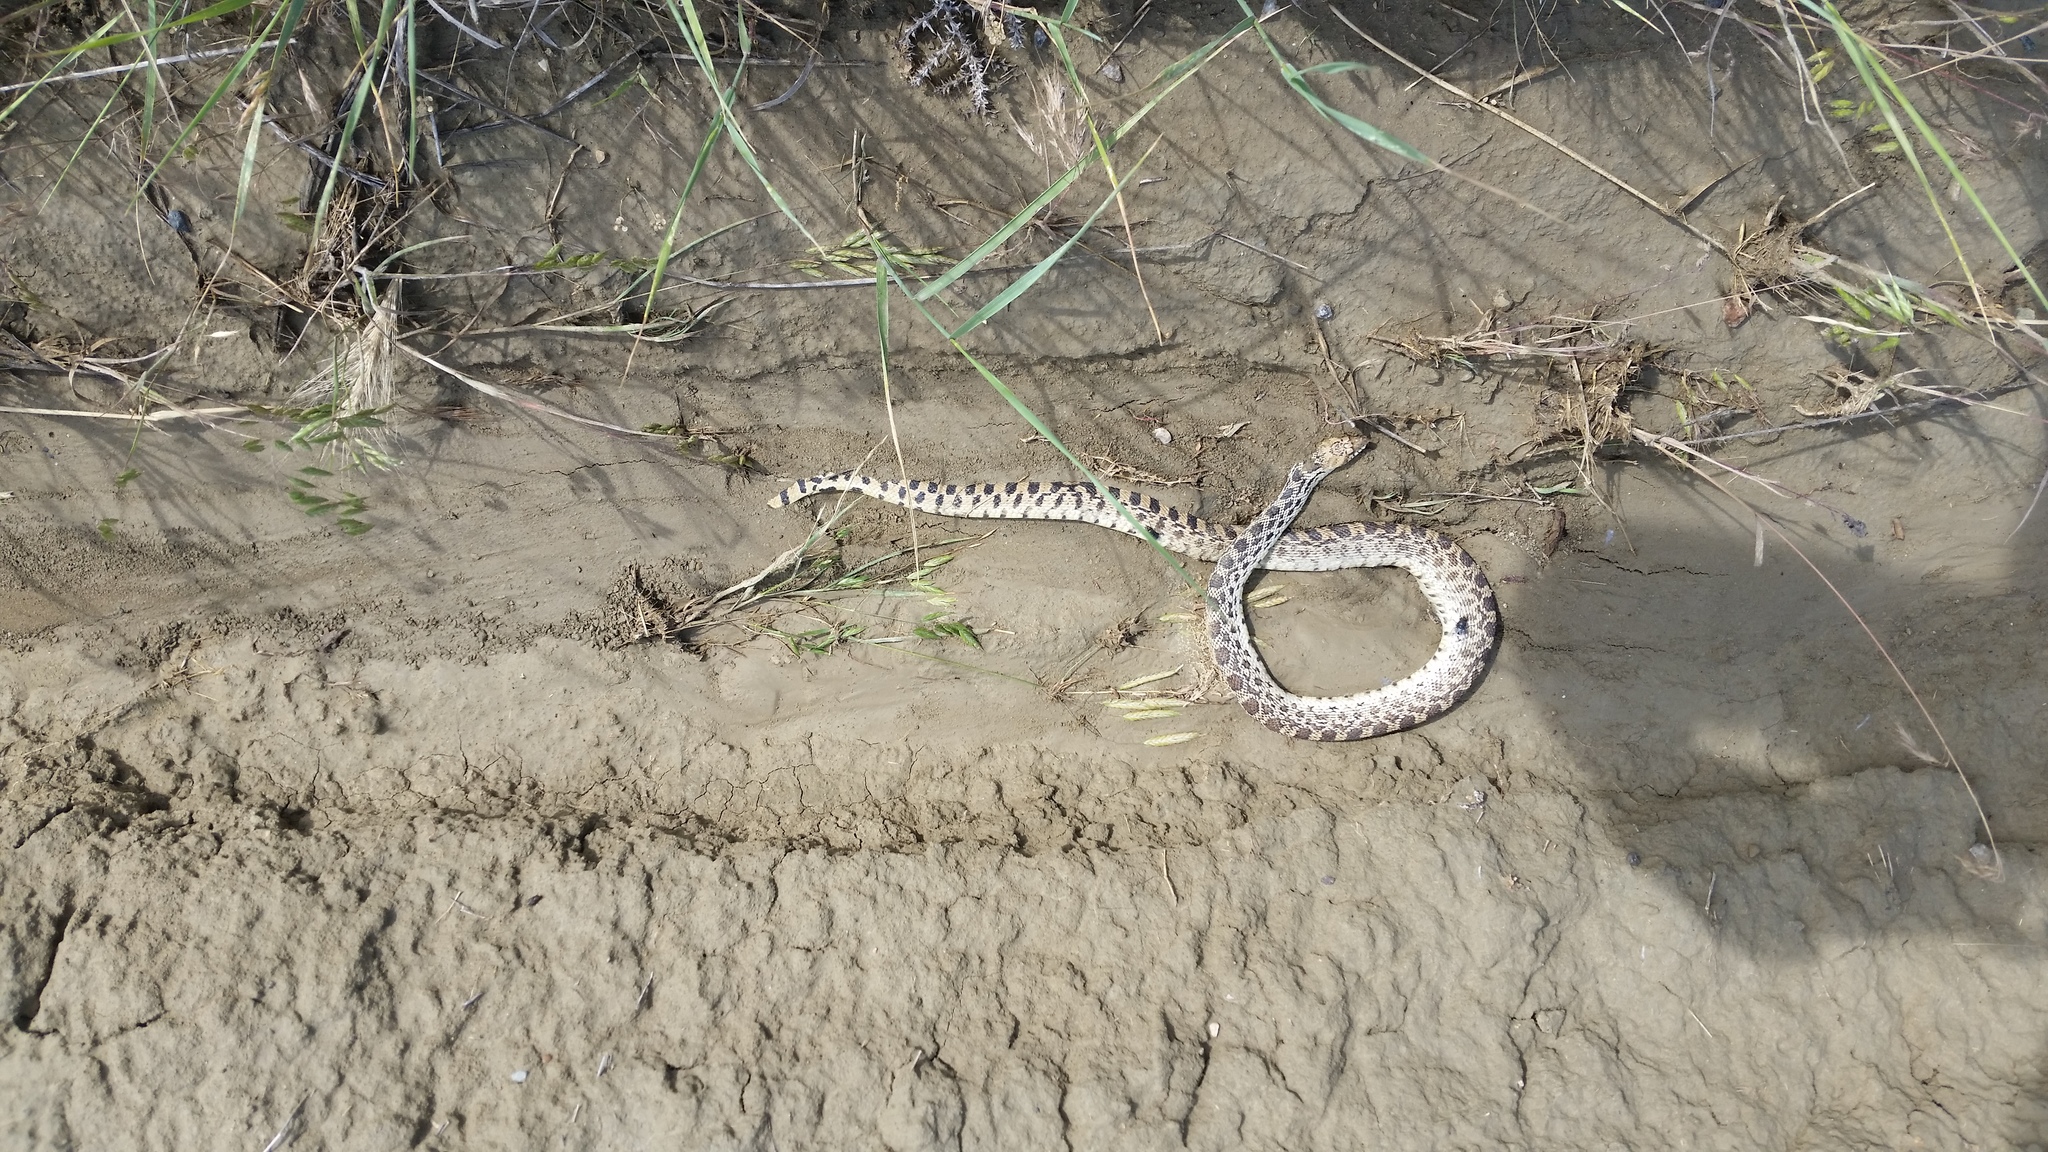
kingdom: Animalia
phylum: Chordata
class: Squamata
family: Colubridae
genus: Pituophis
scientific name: Pituophis catenifer
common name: Gopher snake
